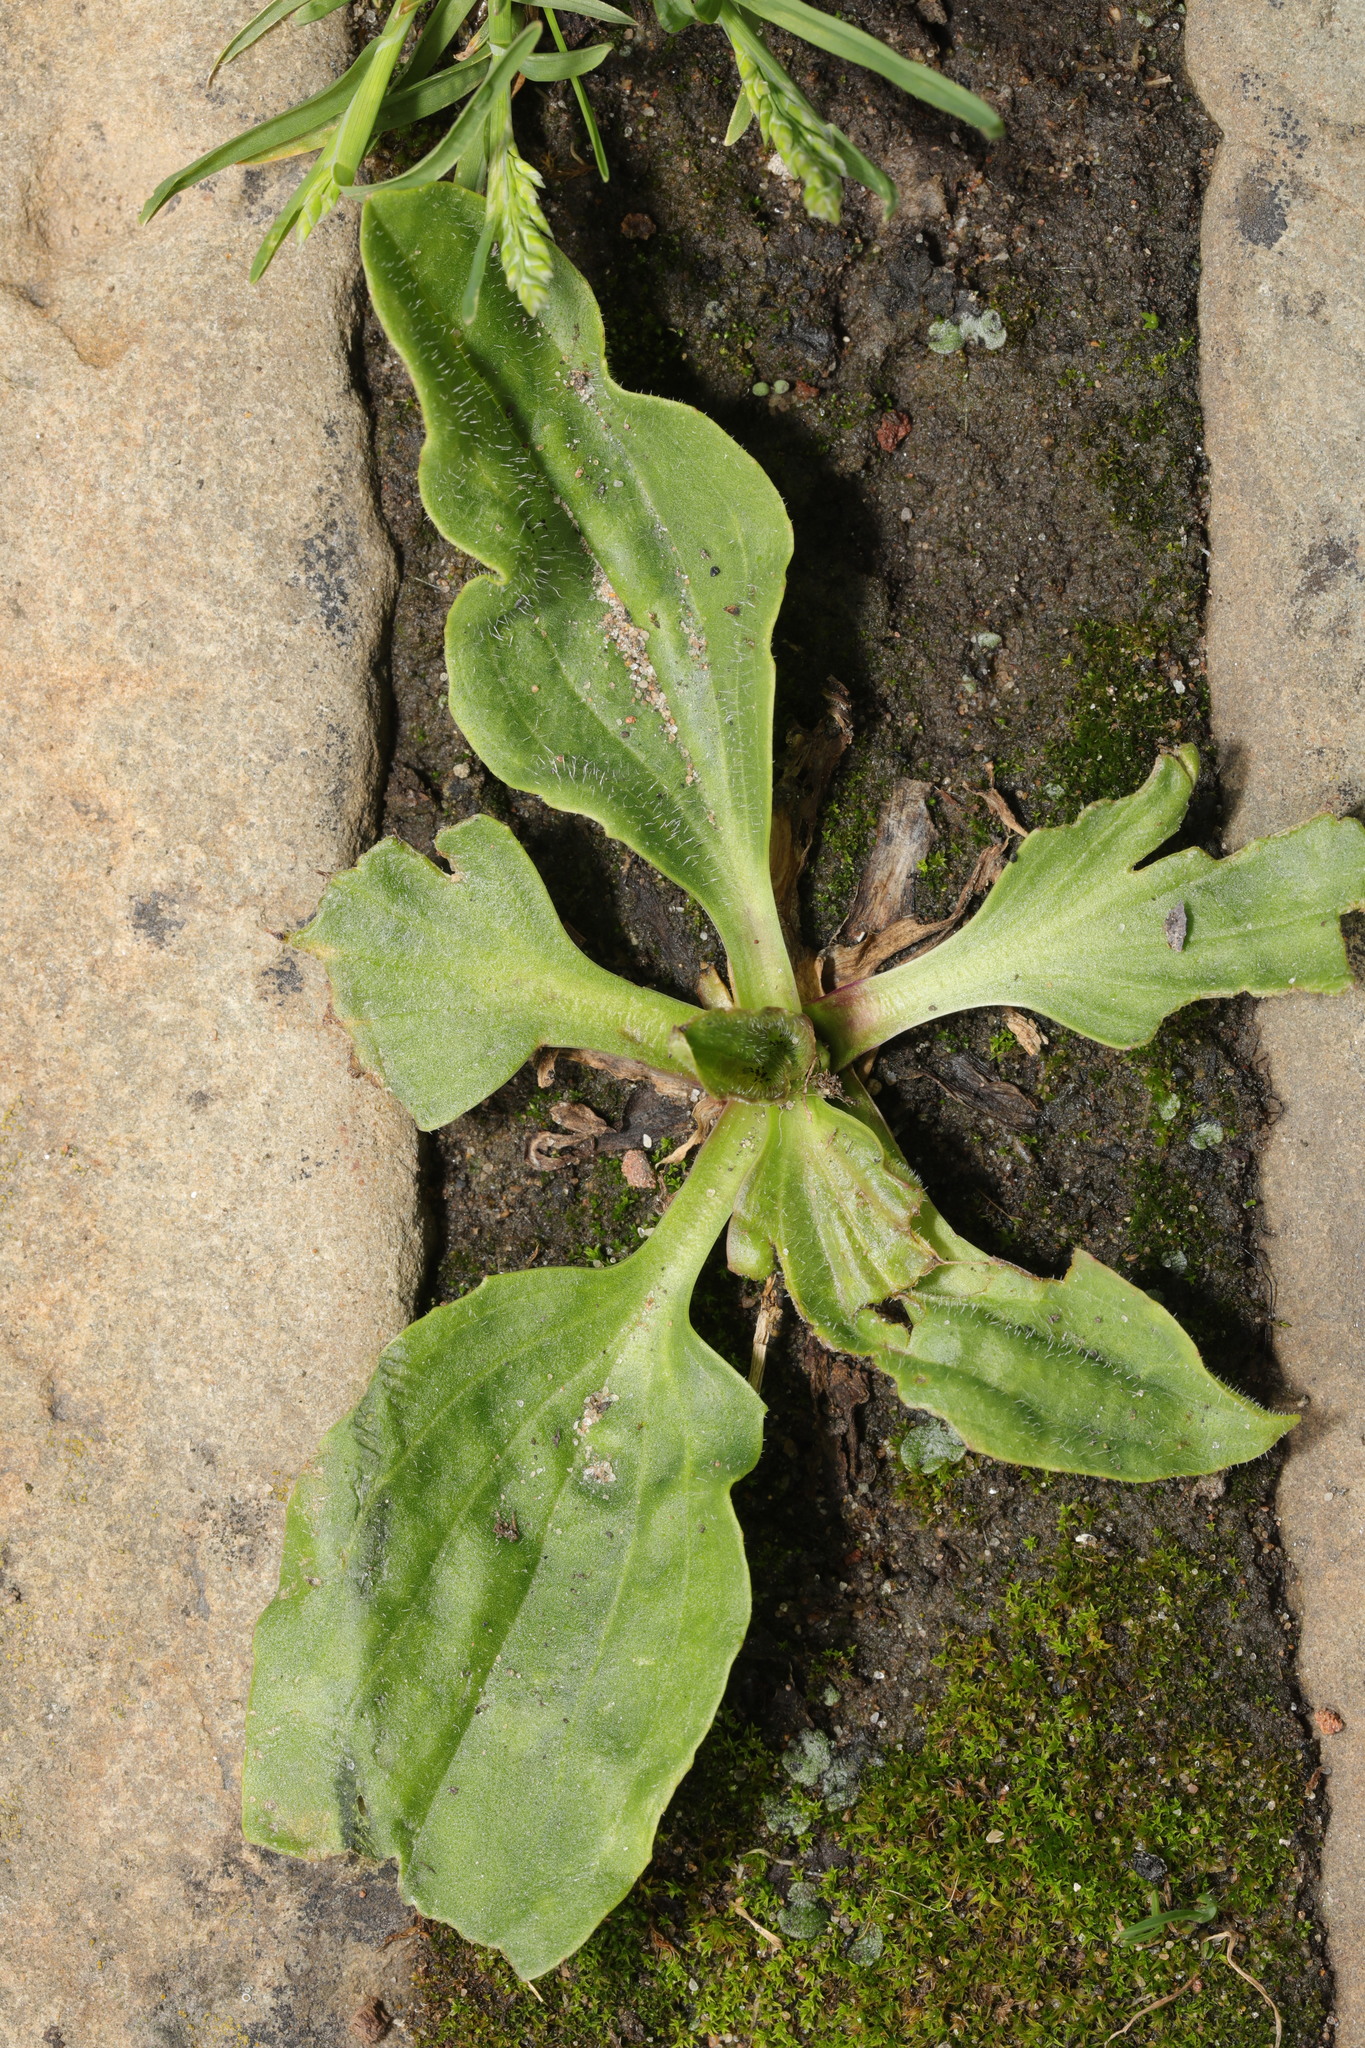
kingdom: Plantae
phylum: Tracheophyta
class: Magnoliopsida
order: Lamiales
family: Plantaginaceae
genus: Plantago
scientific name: Plantago major
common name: Common plantain
